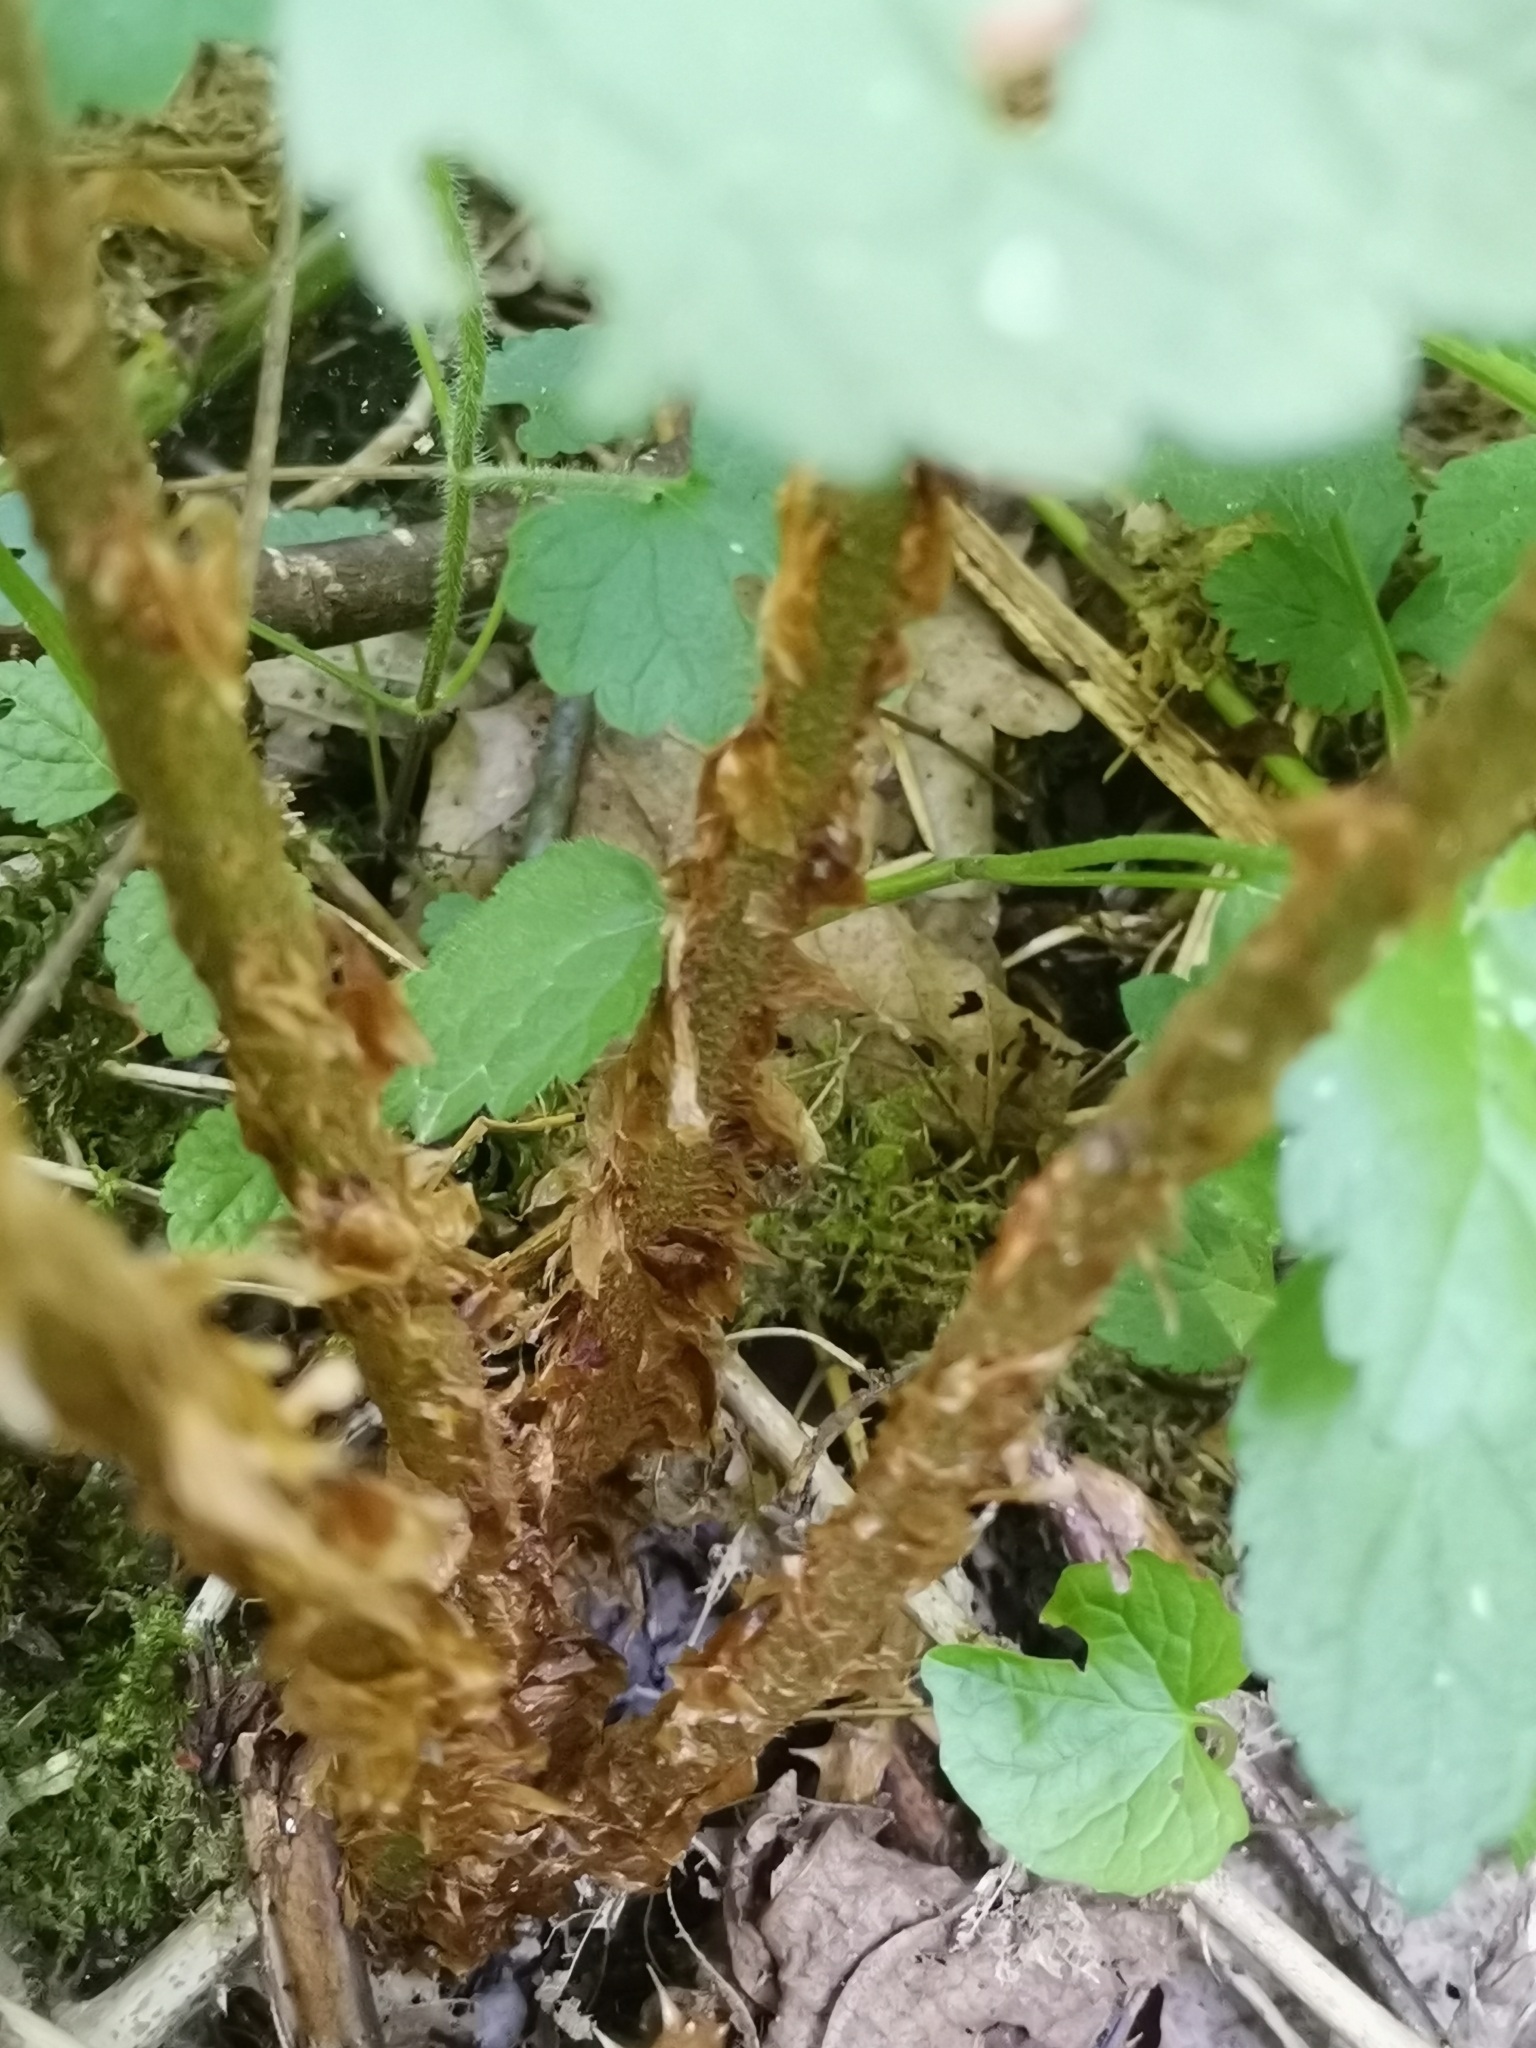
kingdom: Plantae
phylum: Tracheophyta
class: Polypodiopsida
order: Polypodiales
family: Dryopteridaceae
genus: Dryopteris
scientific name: Dryopteris filix-mas
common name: Male fern
